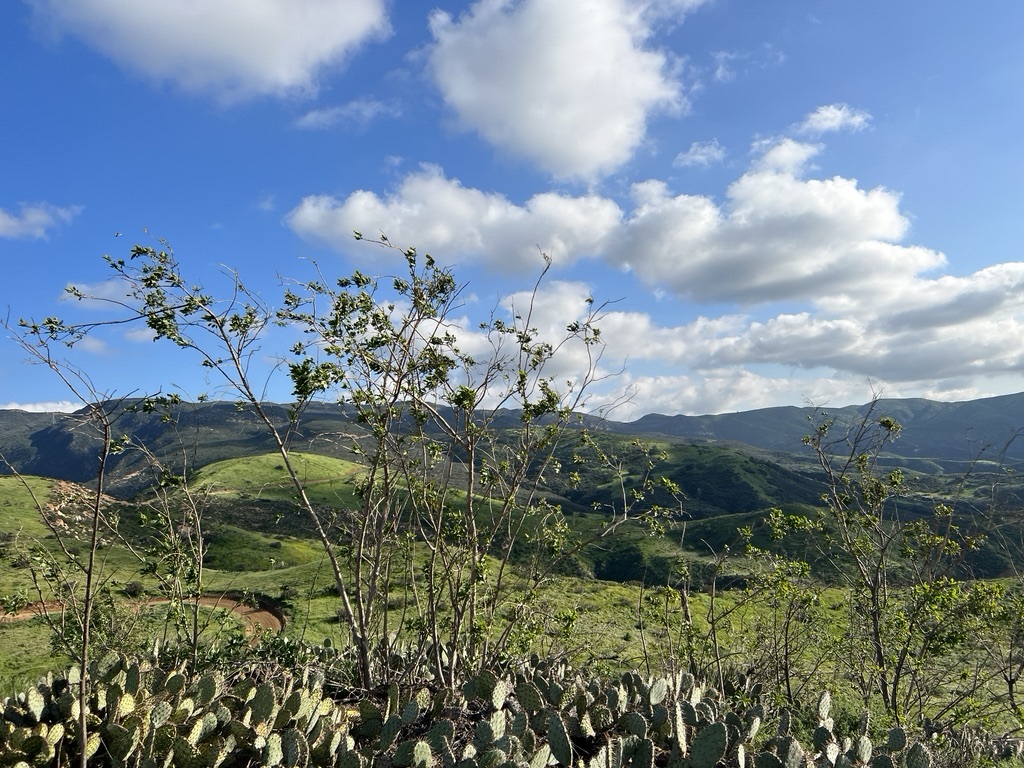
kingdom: Plantae
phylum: Tracheophyta
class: Magnoliopsida
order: Solanales
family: Solanaceae
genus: Nicotiana
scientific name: Nicotiana glauca
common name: Tree tobacco
